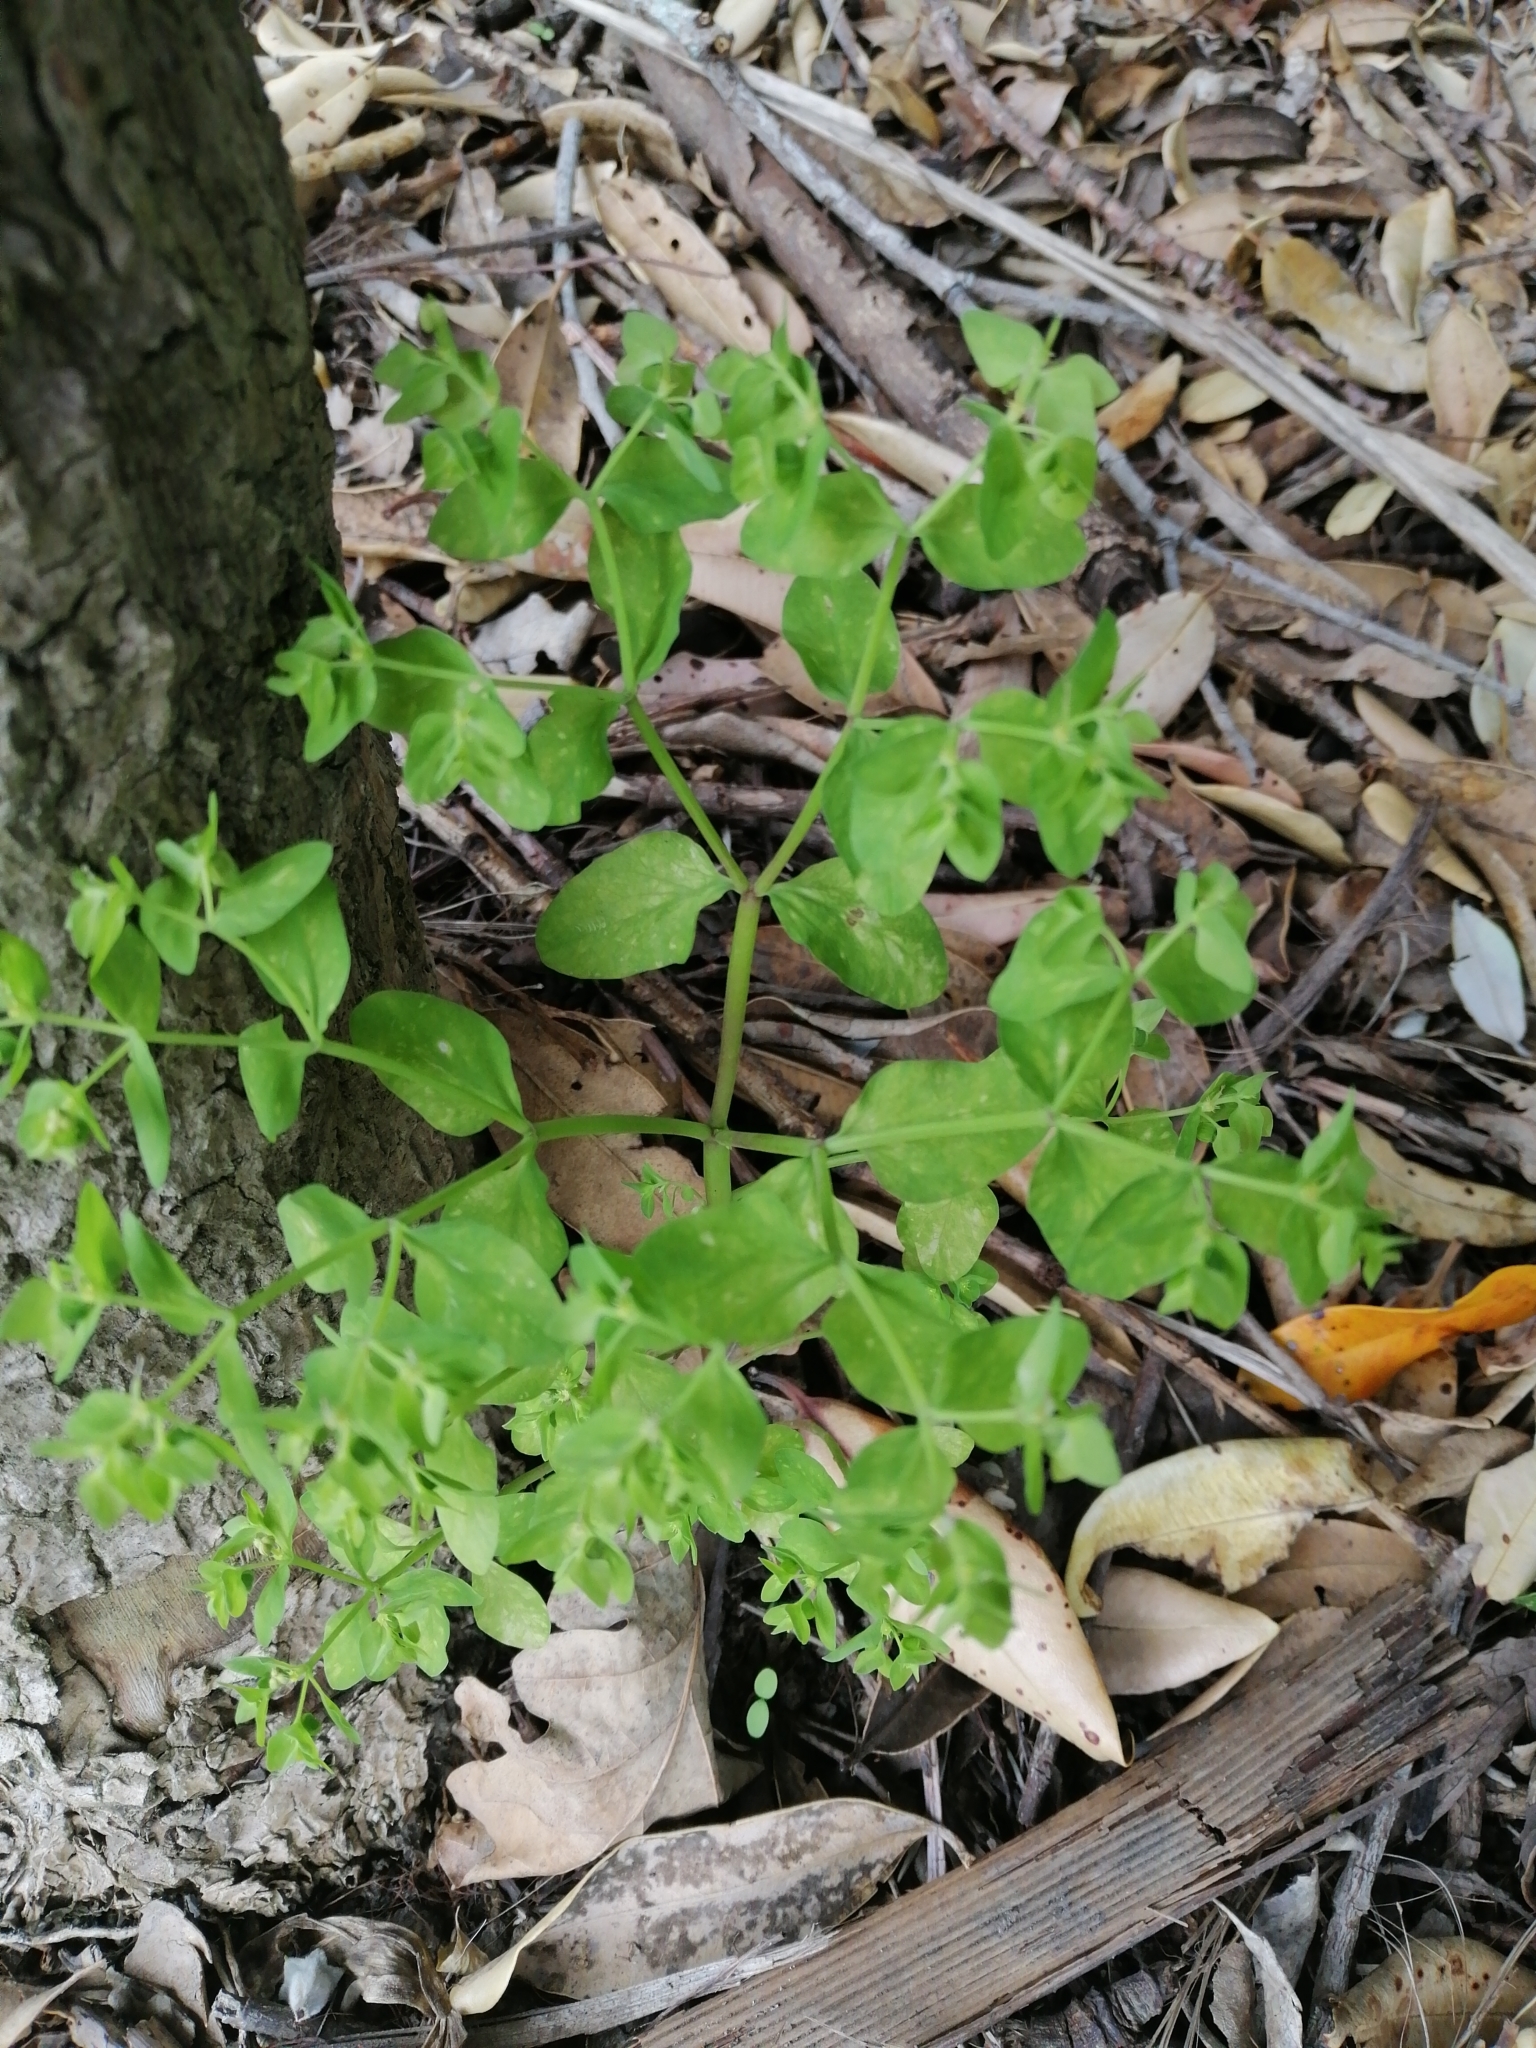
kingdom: Plantae
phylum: Tracheophyta
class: Magnoliopsida
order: Malpighiales
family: Euphorbiaceae
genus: Euphorbia
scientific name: Euphorbia peplus
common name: Petty spurge
